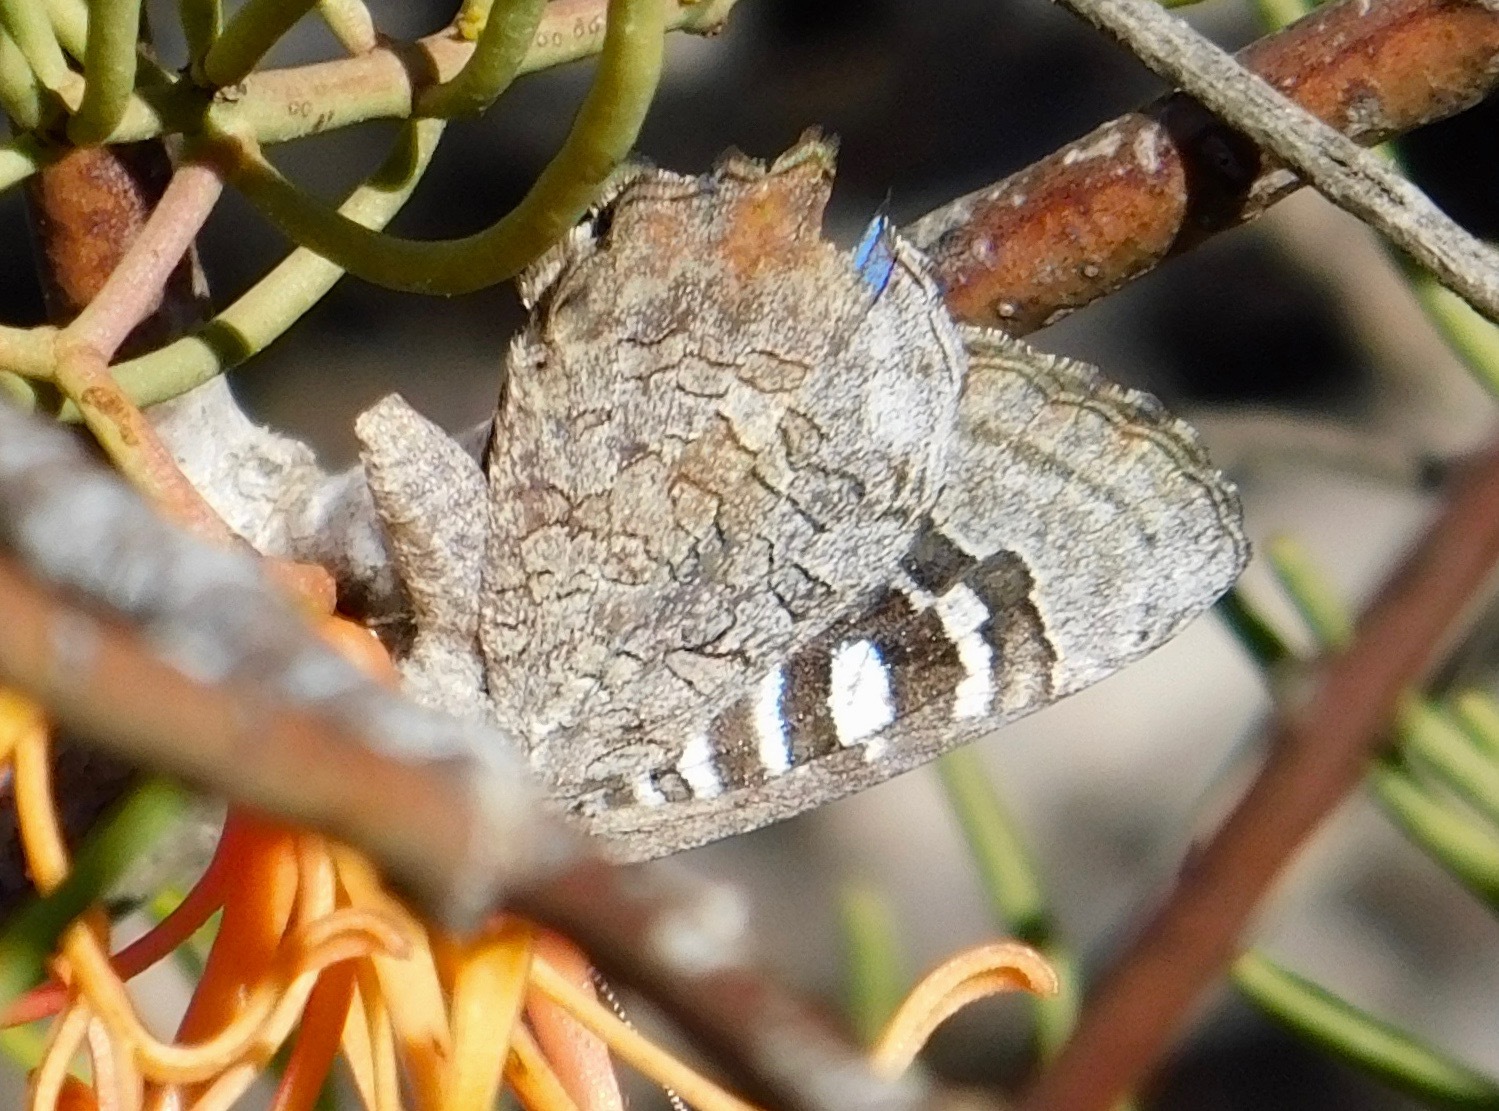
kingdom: Animalia
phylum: Arthropoda
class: Insecta
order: Lepidoptera
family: Lycaenidae
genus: Ogyris
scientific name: Ogyris amaryllis
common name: Satin azure
